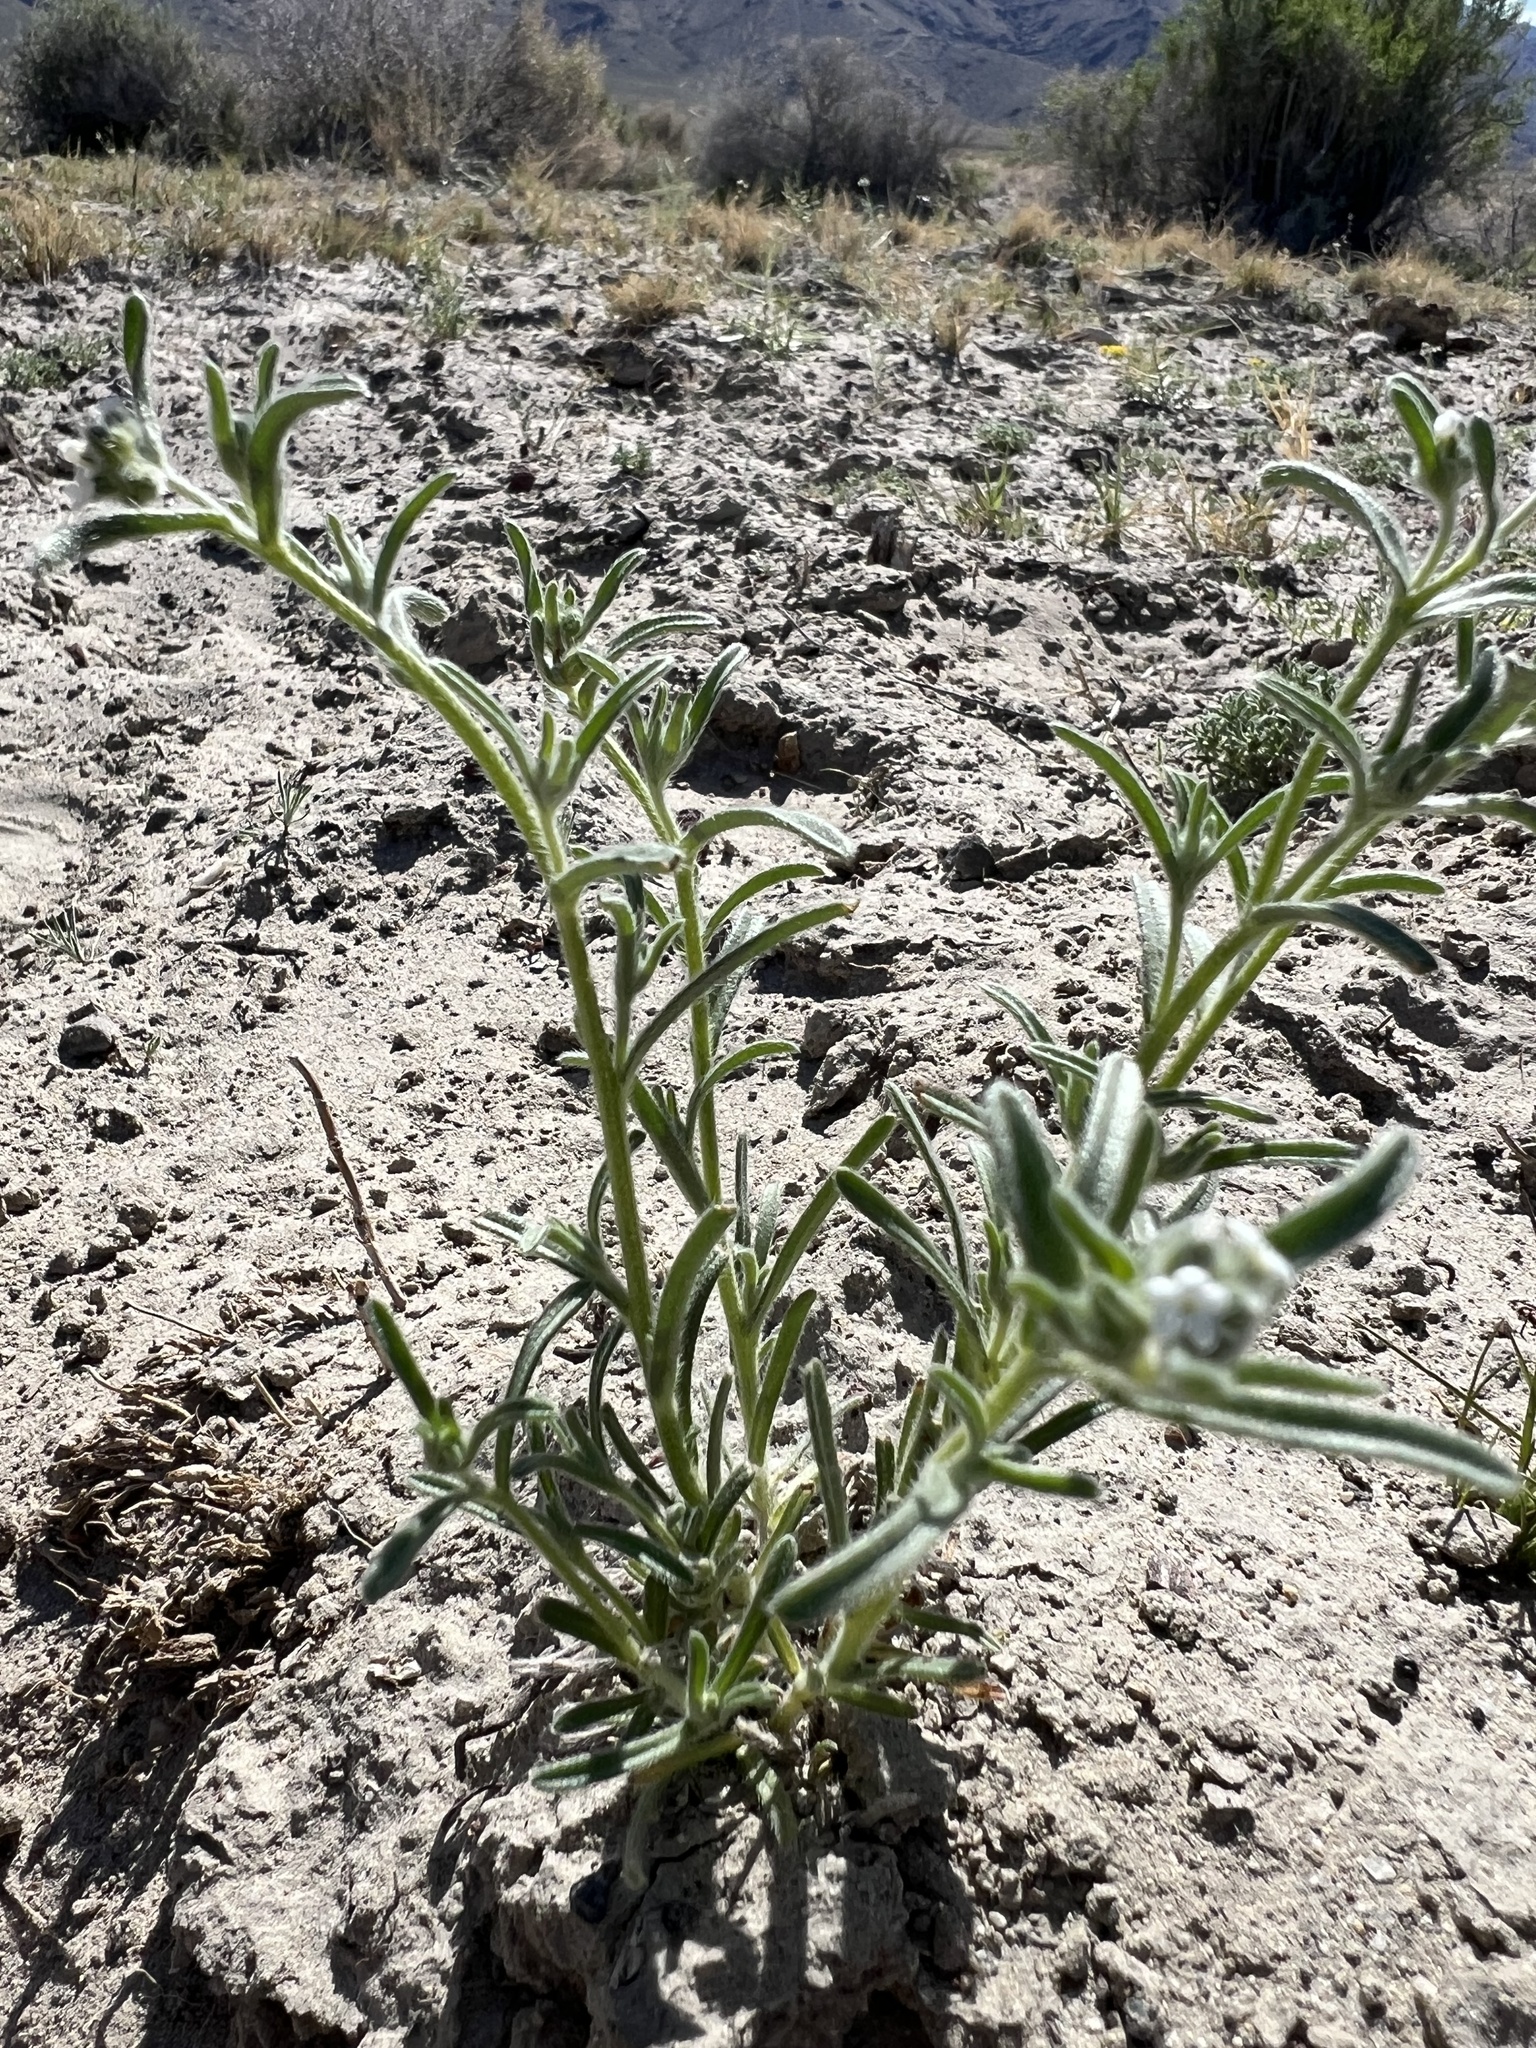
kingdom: Plantae
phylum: Tracheophyta
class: Magnoliopsida
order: Boraginales
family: Boraginaceae
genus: Cryptantha
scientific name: Cryptantha pterocarya
